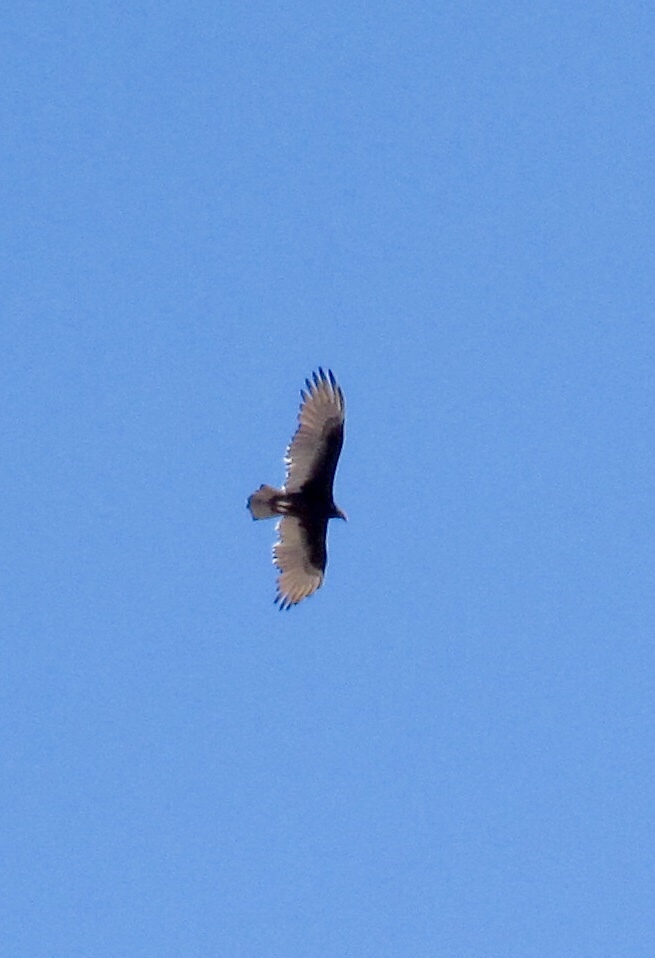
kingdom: Animalia
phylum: Chordata
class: Aves
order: Accipitriformes
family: Cathartidae
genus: Cathartes
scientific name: Cathartes aura
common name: Turkey vulture
